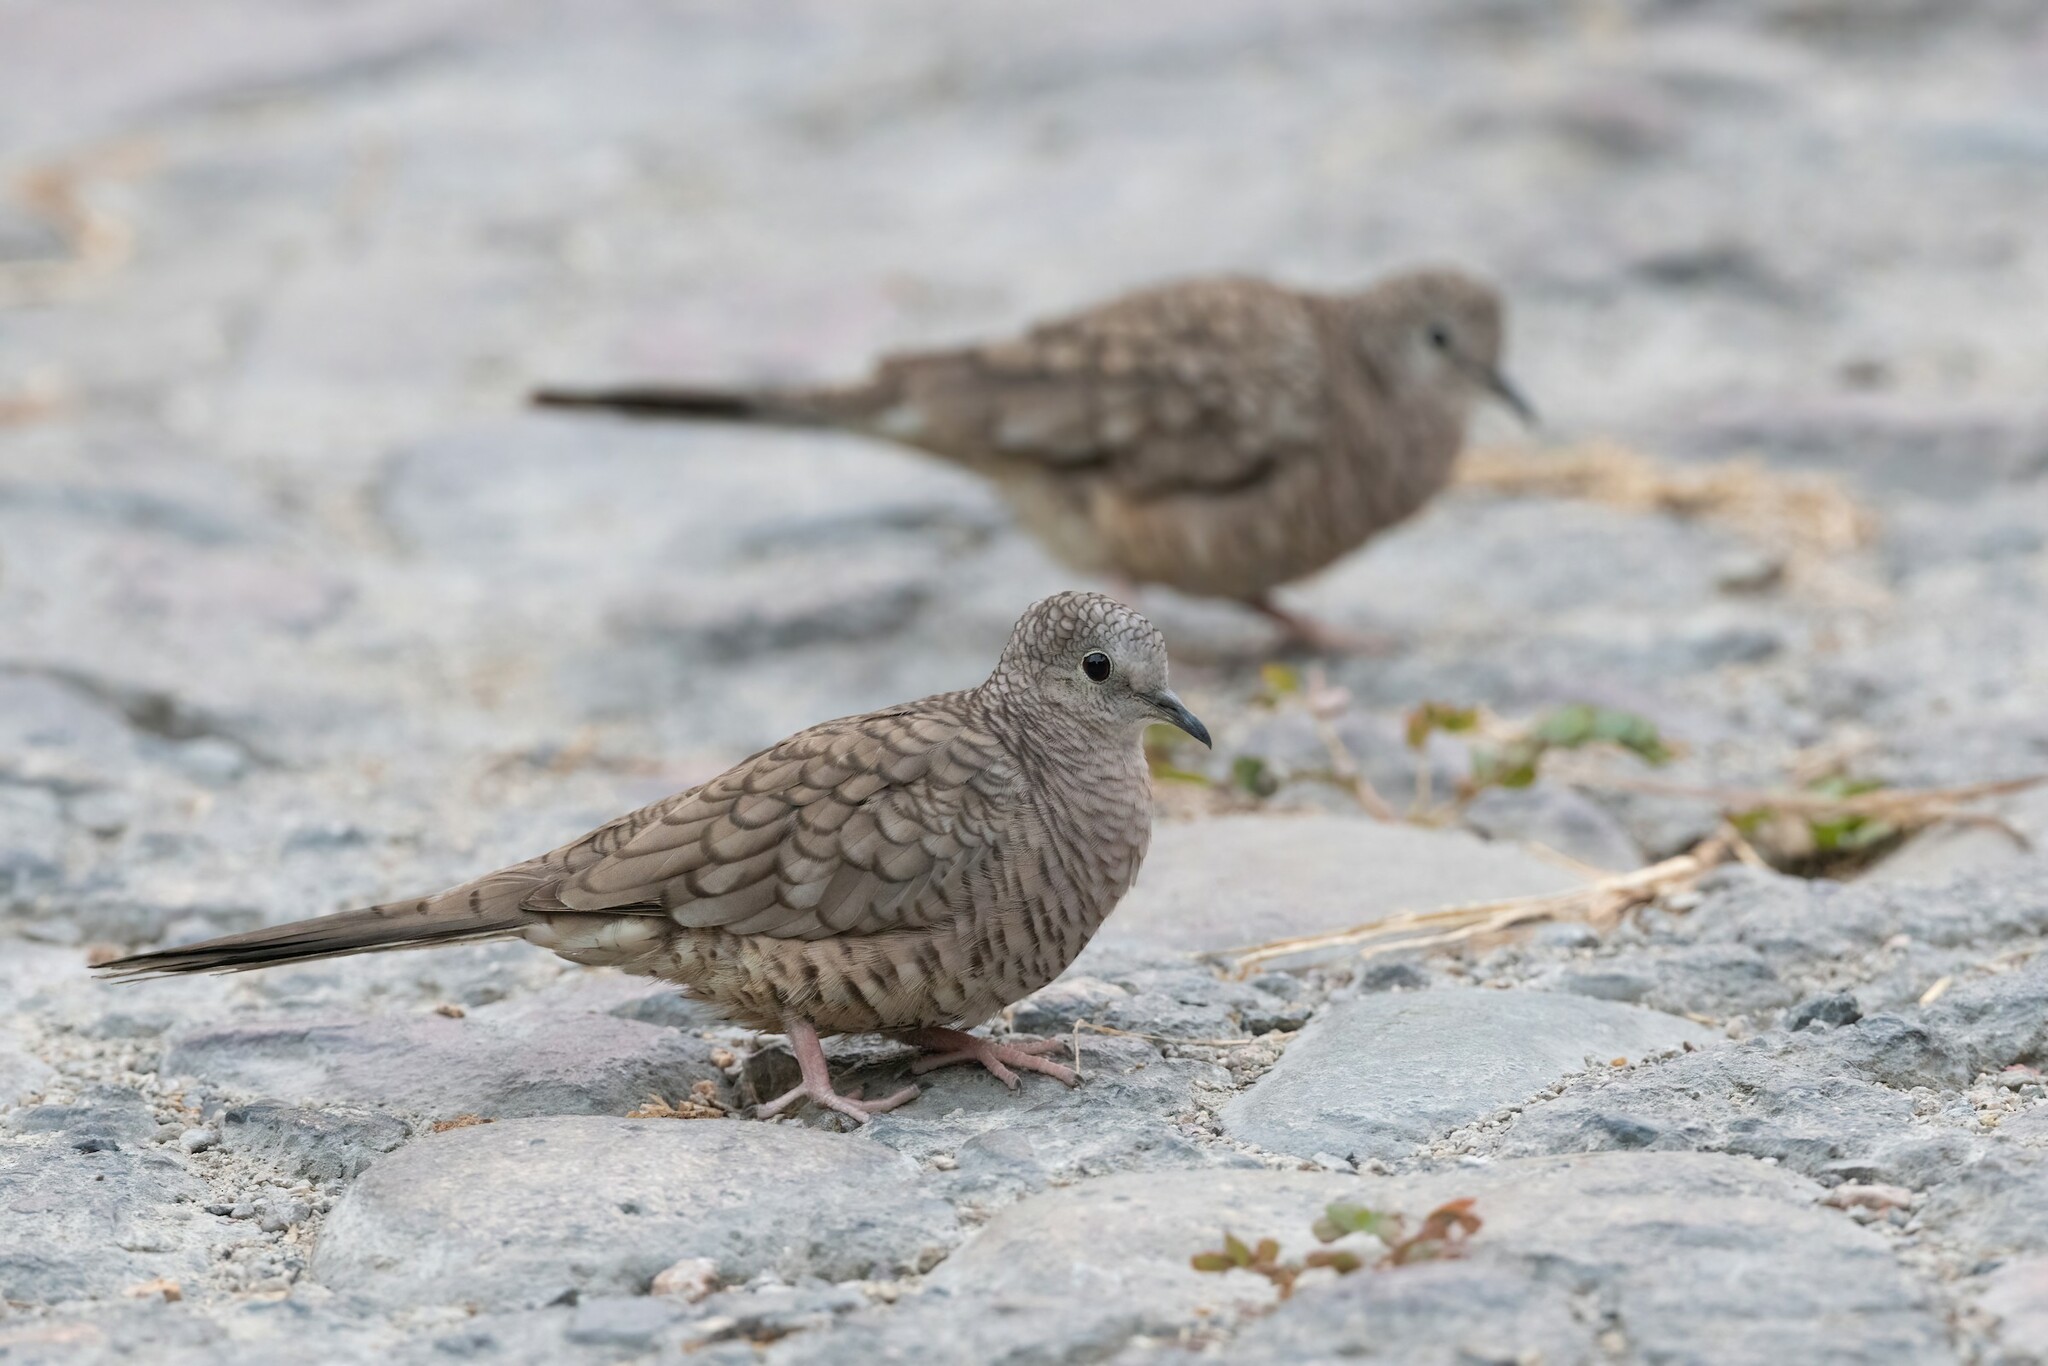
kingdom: Animalia
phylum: Chordata
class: Aves
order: Columbiformes
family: Columbidae
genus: Columbina
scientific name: Columbina inca
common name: Inca dove
